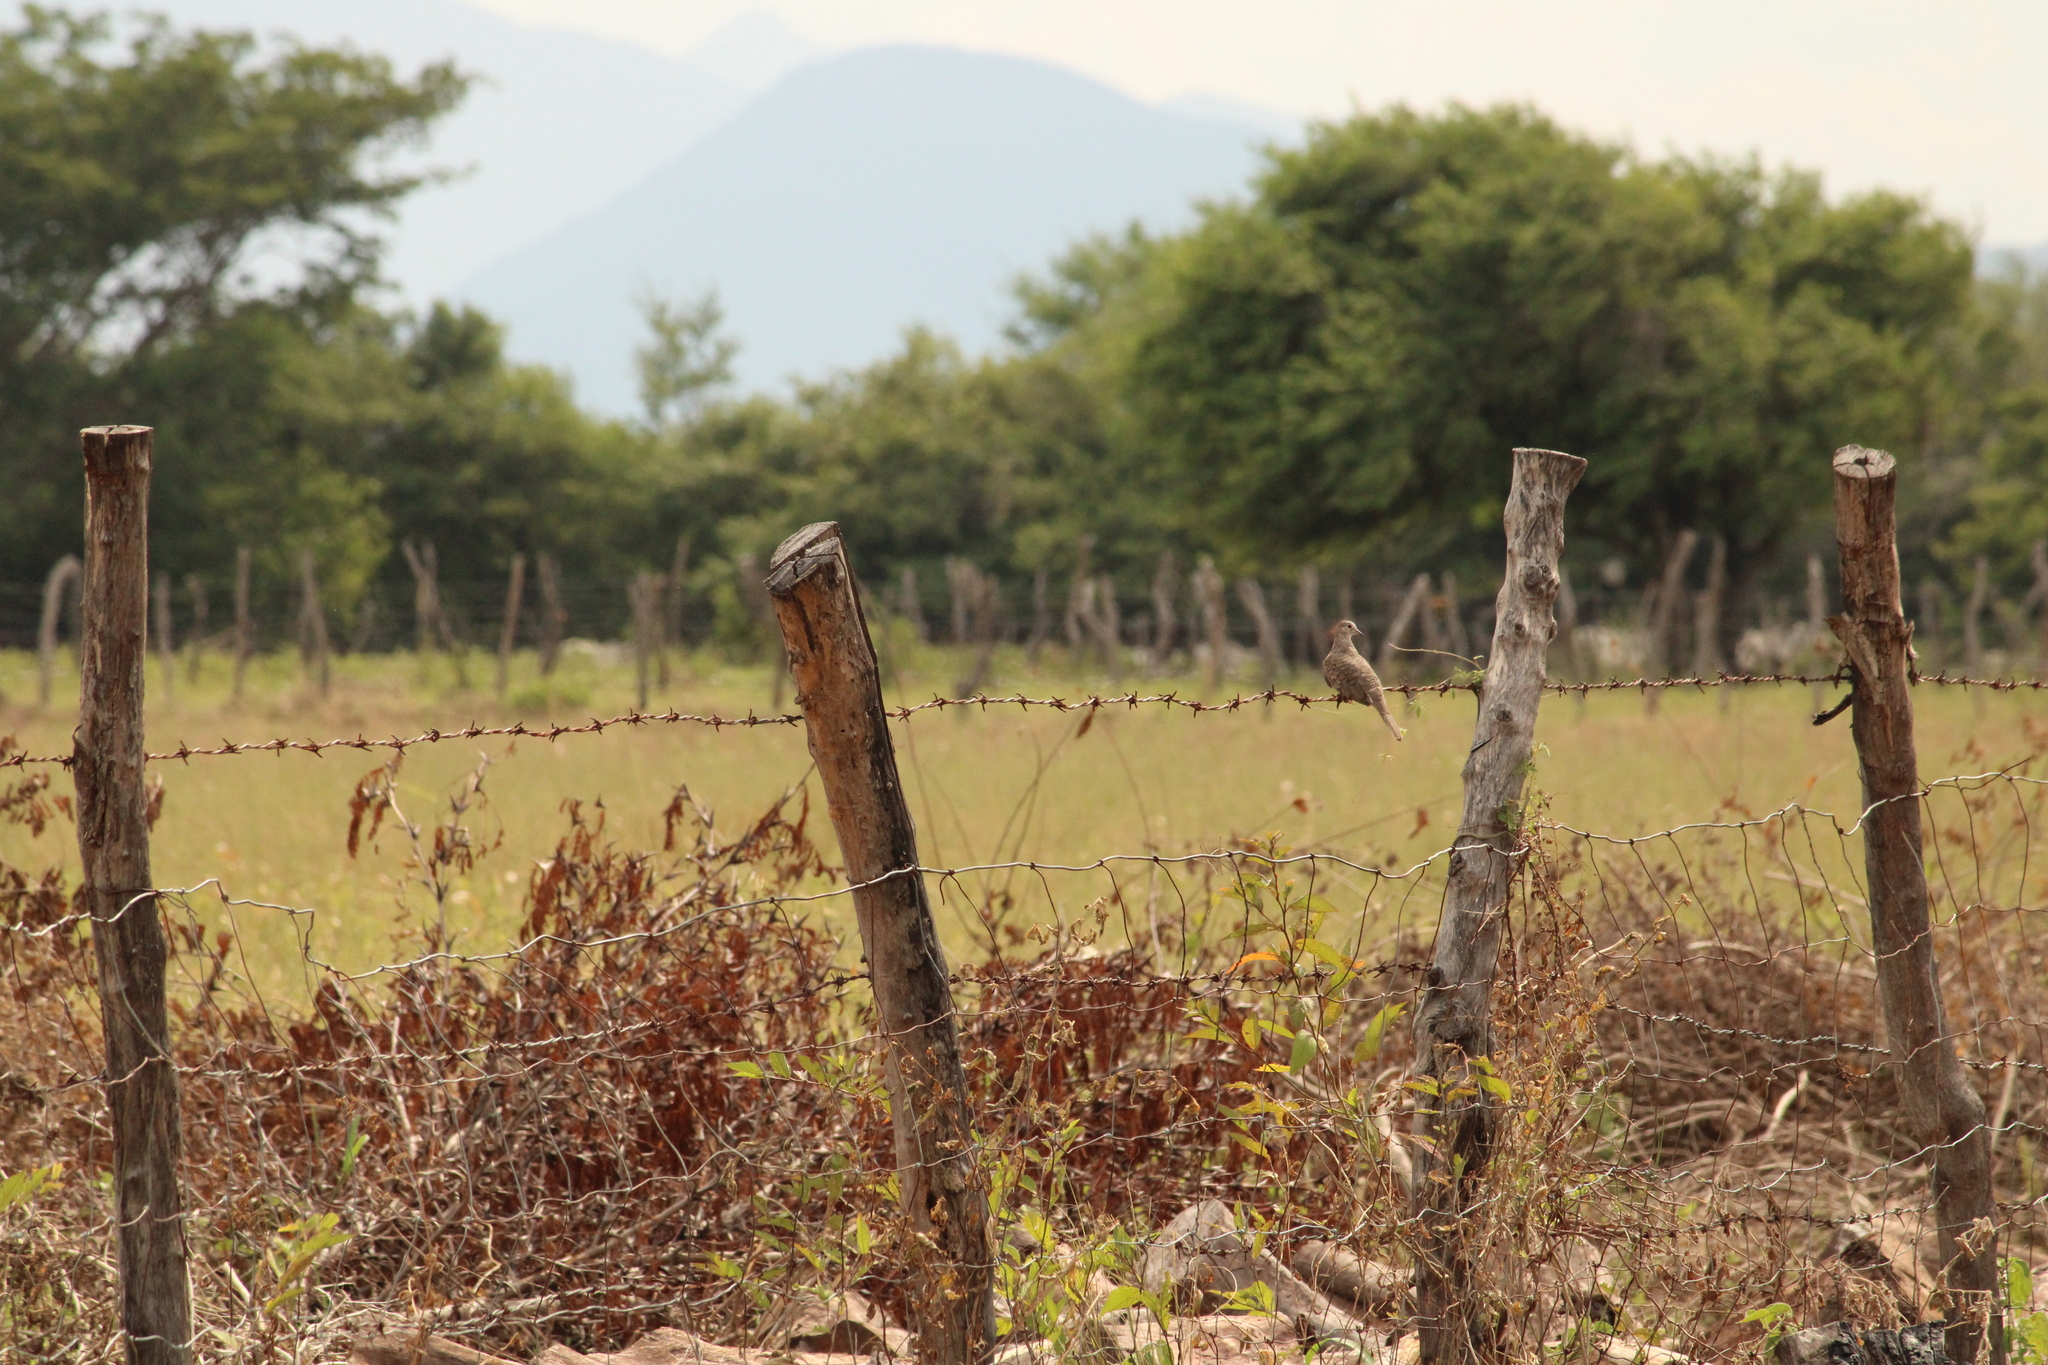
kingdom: Animalia
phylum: Chordata
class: Aves
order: Columbiformes
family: Columbidae
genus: Columbina
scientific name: Columbina inca
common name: Inca dove
